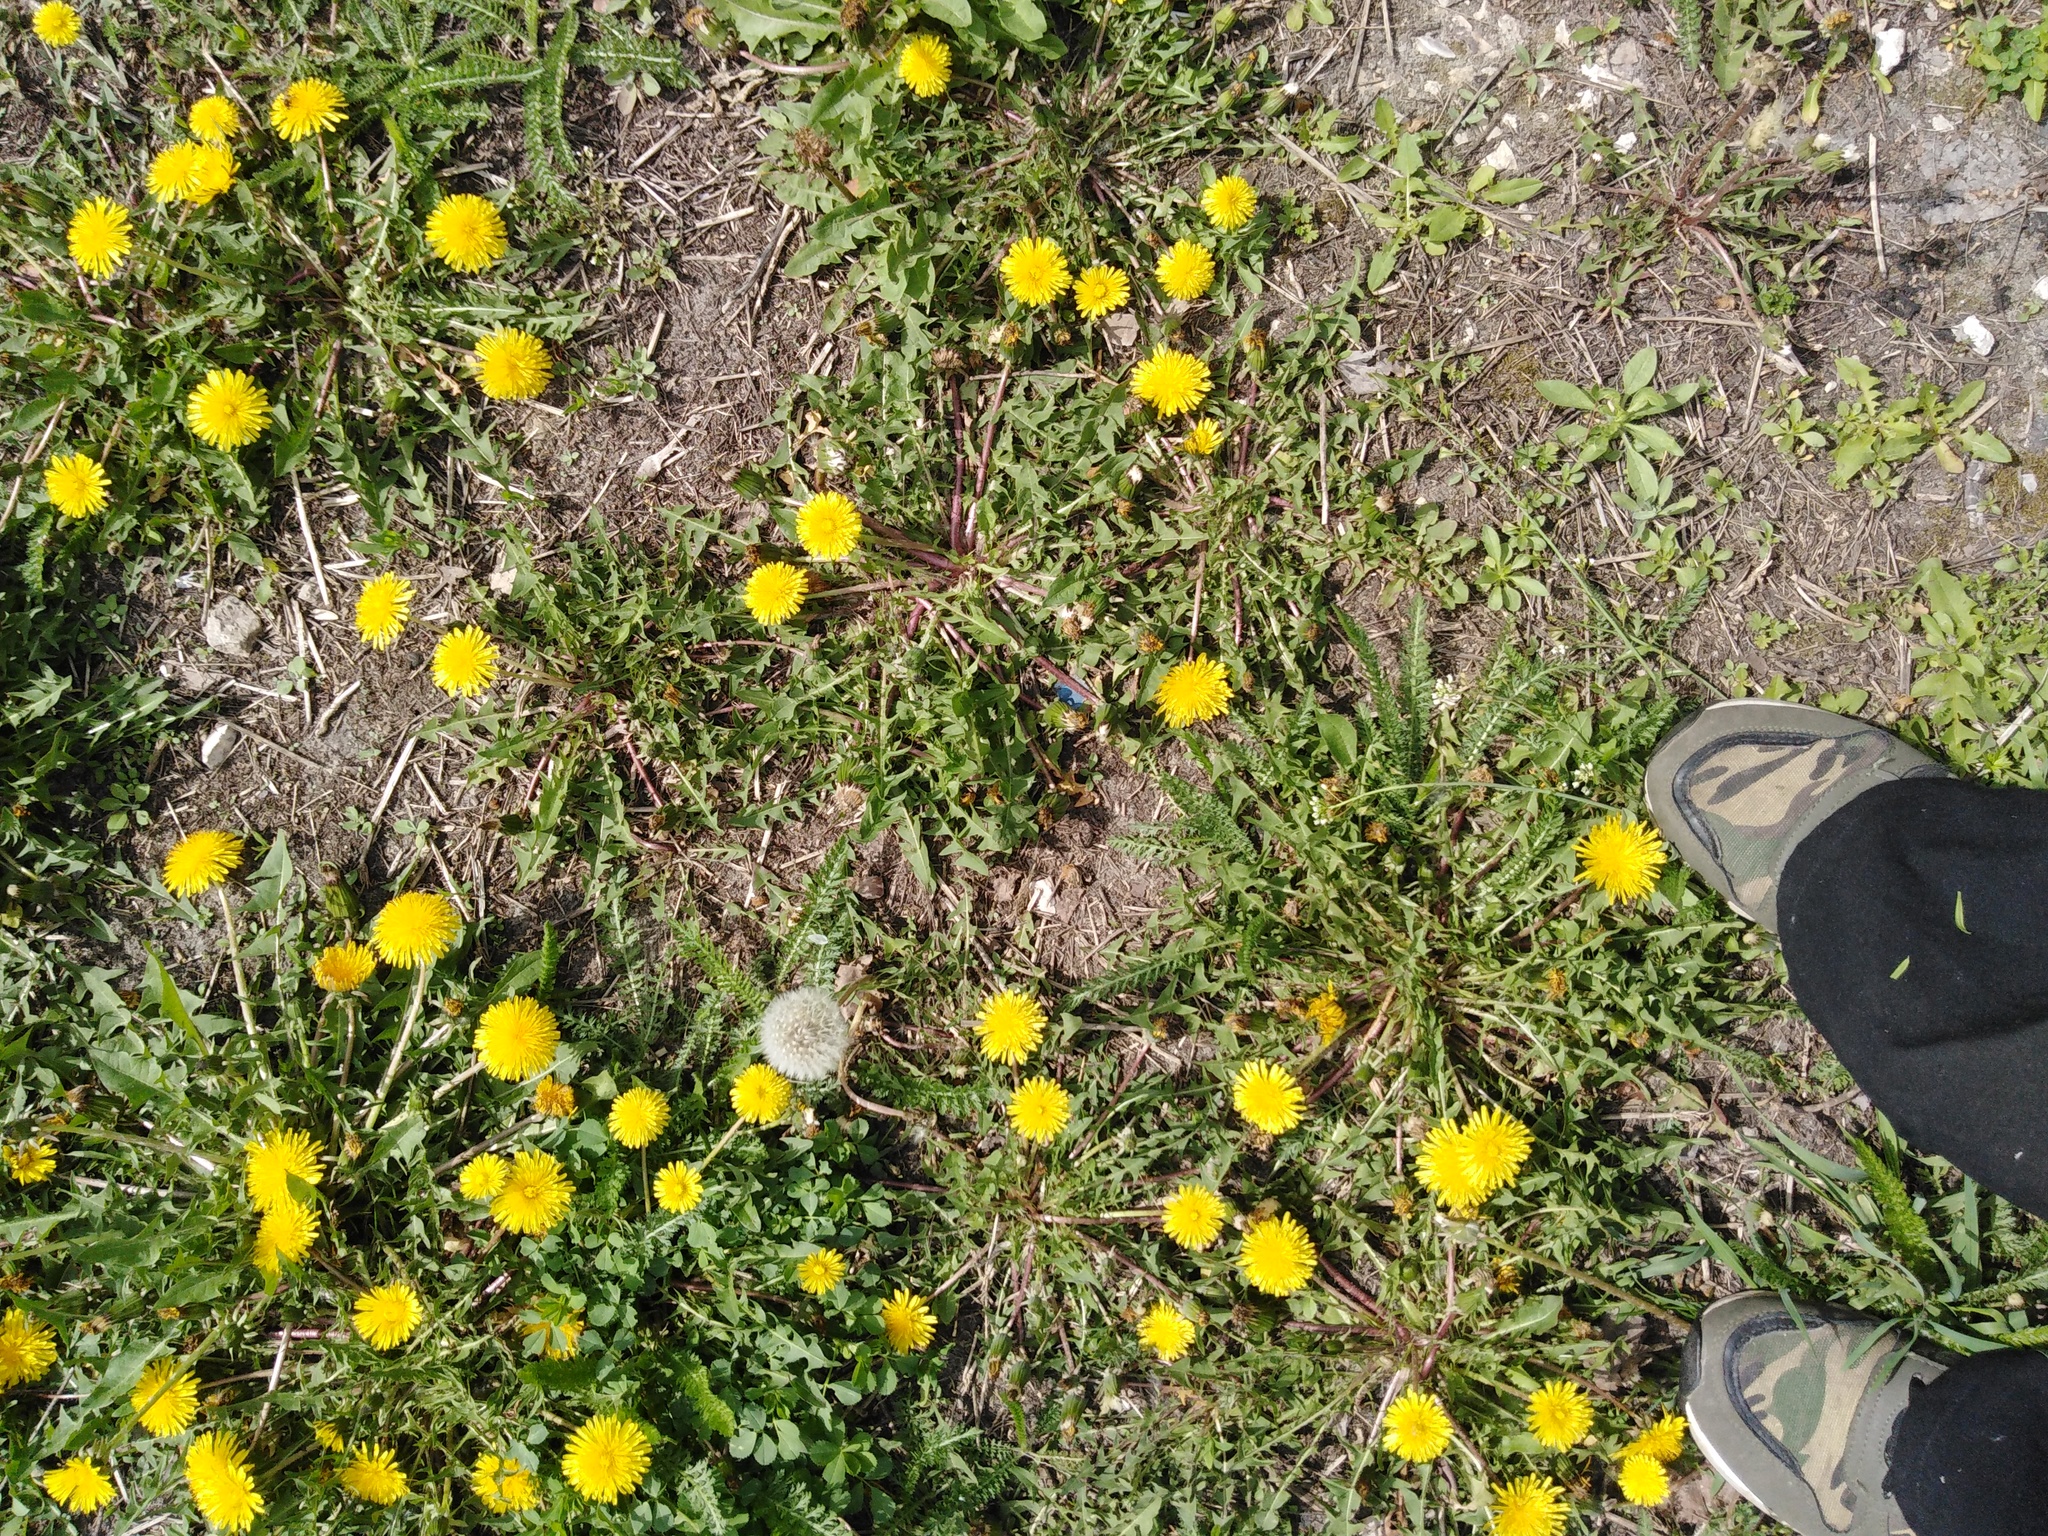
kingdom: Plantae
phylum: Tracheophyta
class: Magnoliopsida
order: Asterales
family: Asteraceae
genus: Taraxacum
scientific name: Taraxacum officinale
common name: Common dandelion
